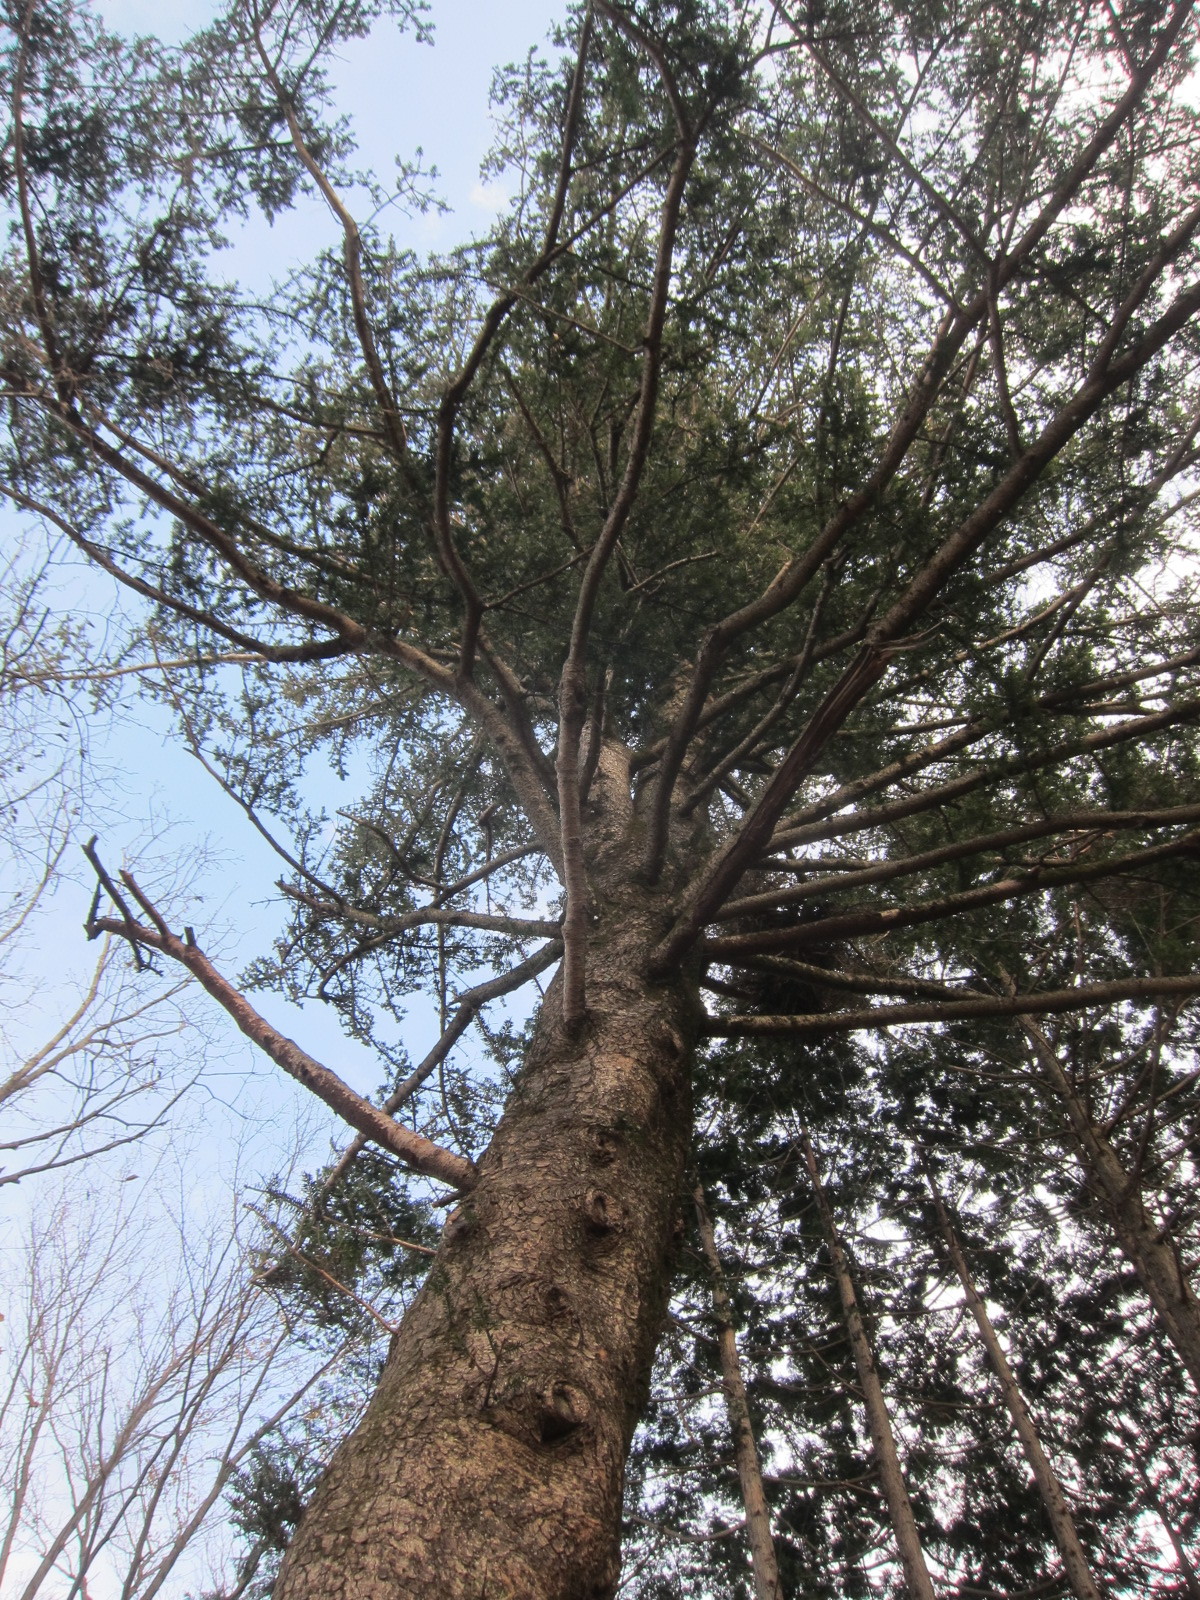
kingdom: Plantae
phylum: Tracheophyta
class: Pinopsida
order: Pinales
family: Pinaceae
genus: Abies
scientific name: Abies firma
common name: Momi fir
